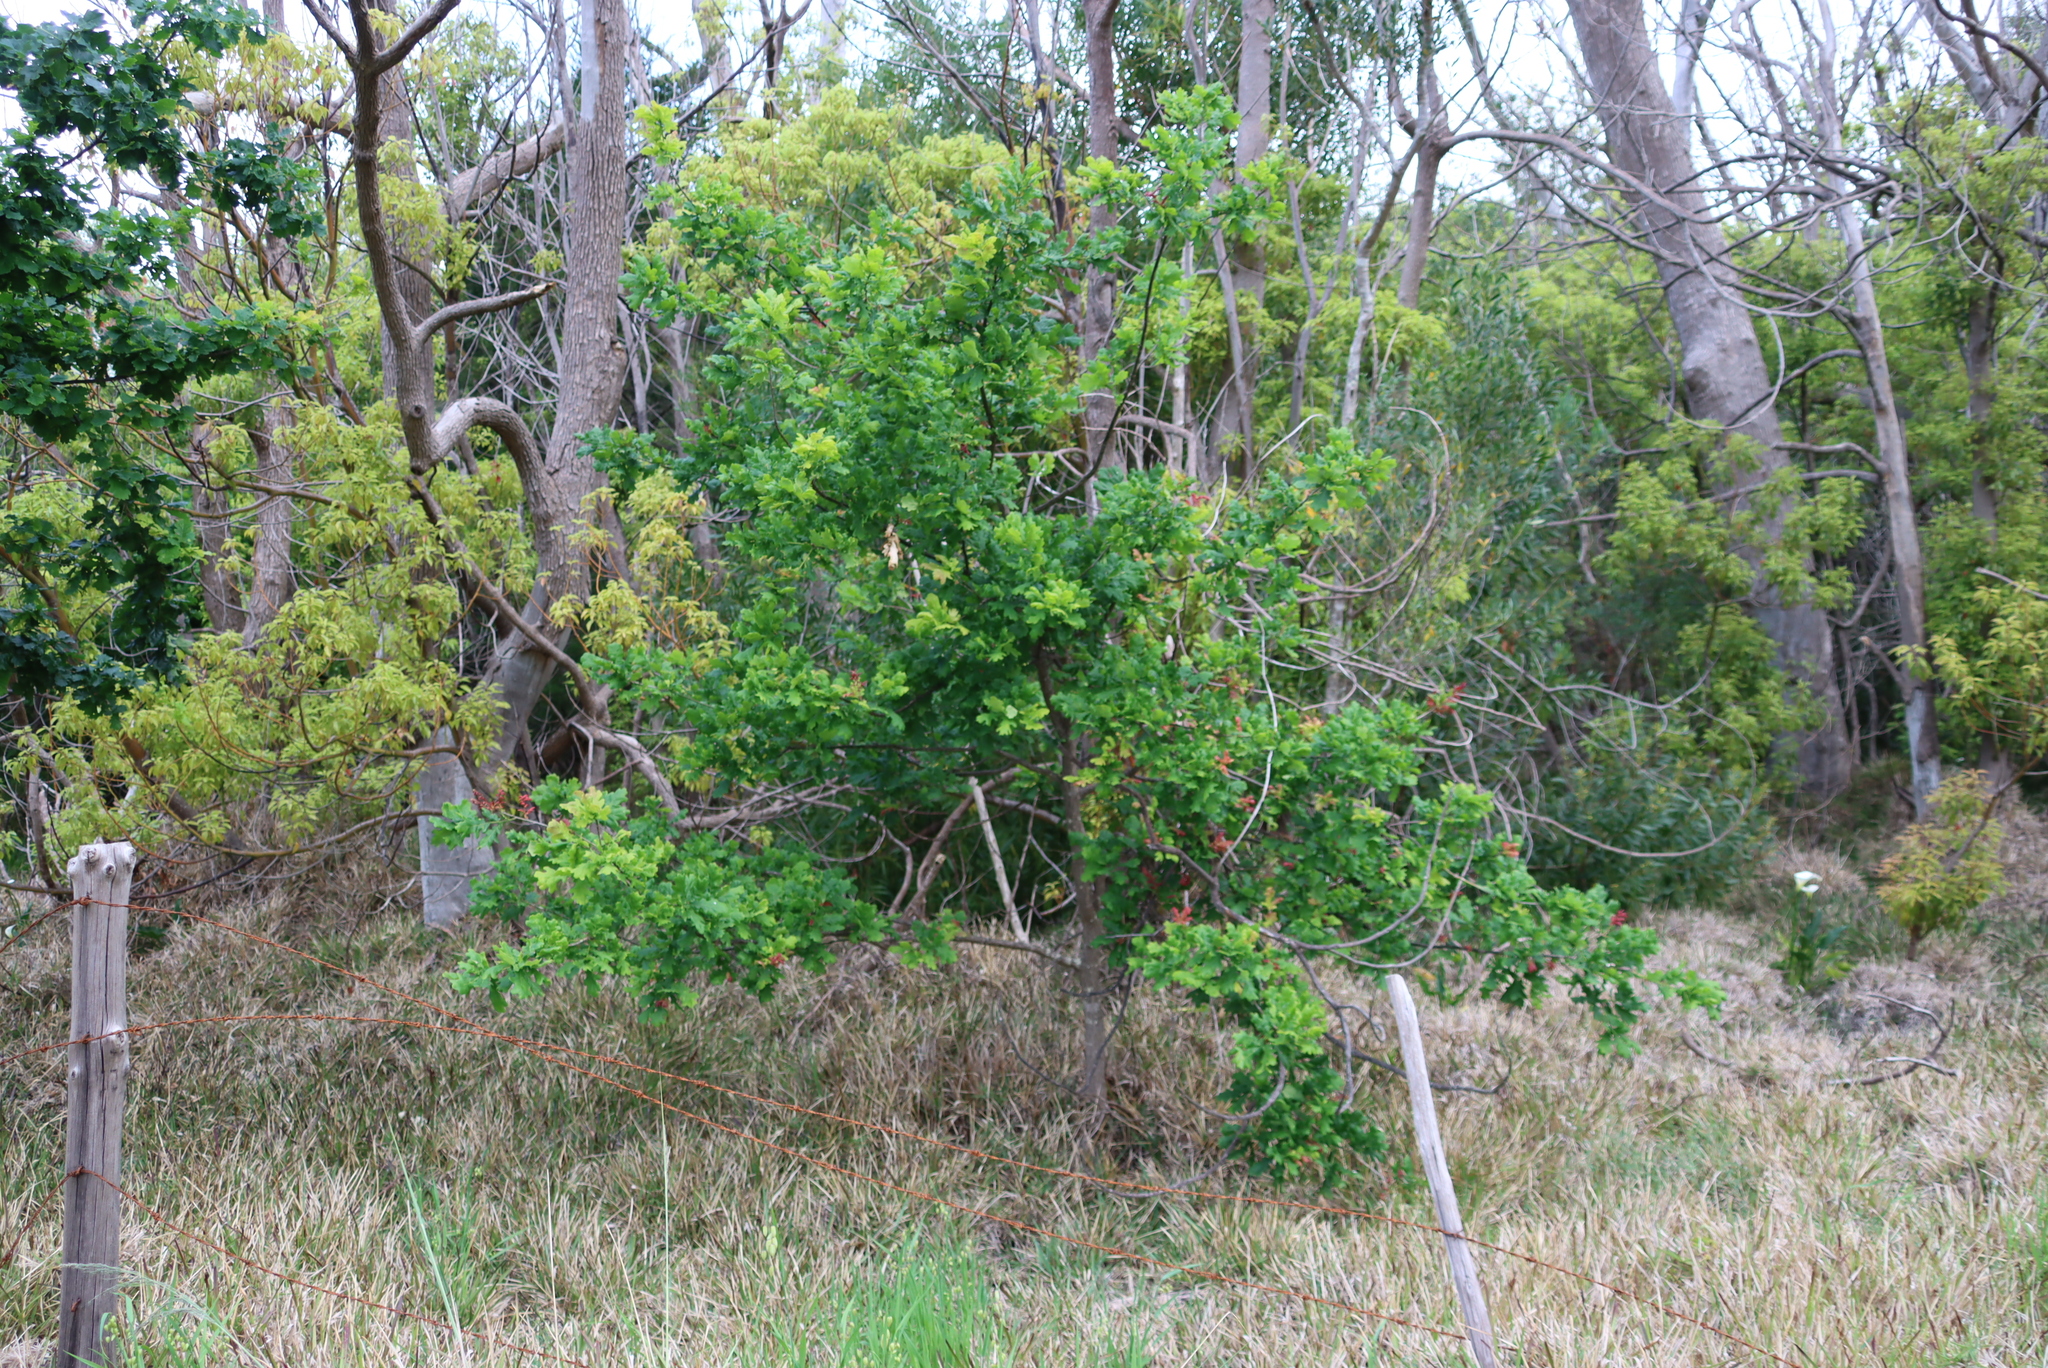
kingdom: Plantae
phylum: Tracheophyta
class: Magnoliopsida
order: Fagales
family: Fagaceae
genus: Quercus
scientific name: Quercus robur
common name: Pedunculate oak
